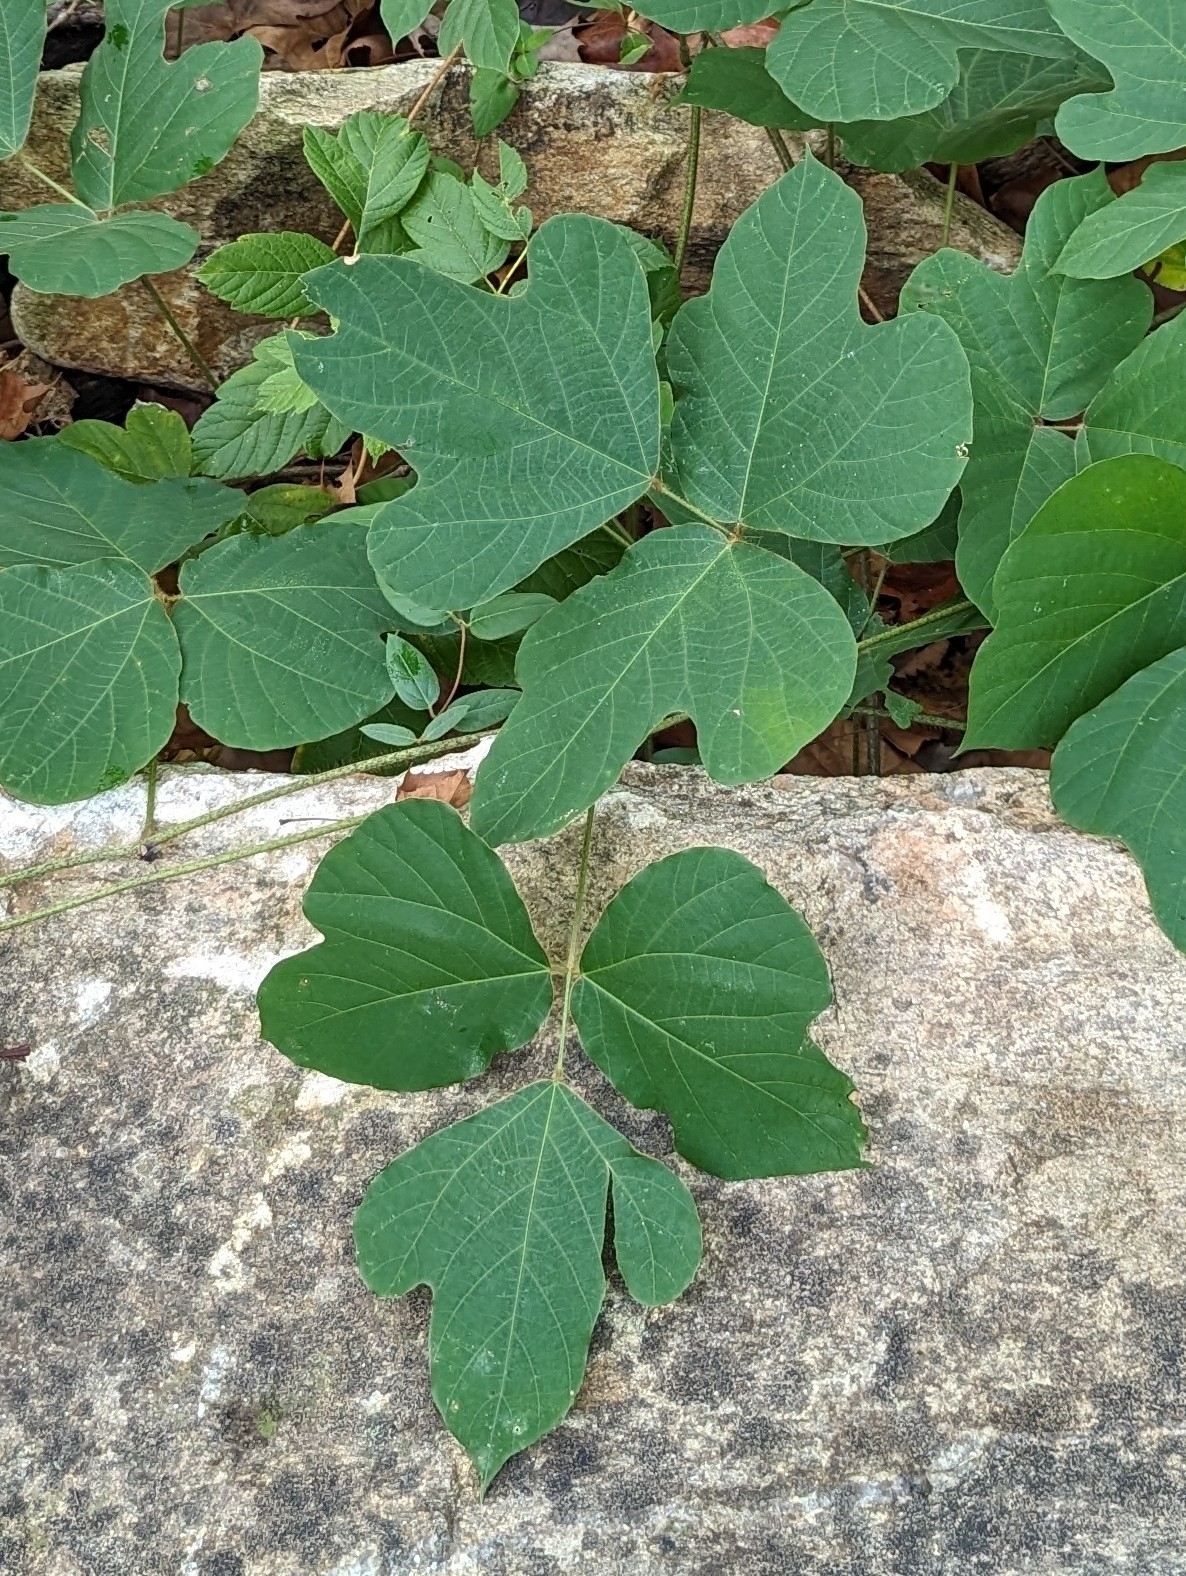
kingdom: Plantae
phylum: Tracheophyta
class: Magnoliopsida
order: Fabales
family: Fabaceae
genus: Pueraria
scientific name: Pueraria montana
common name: Kudzu
